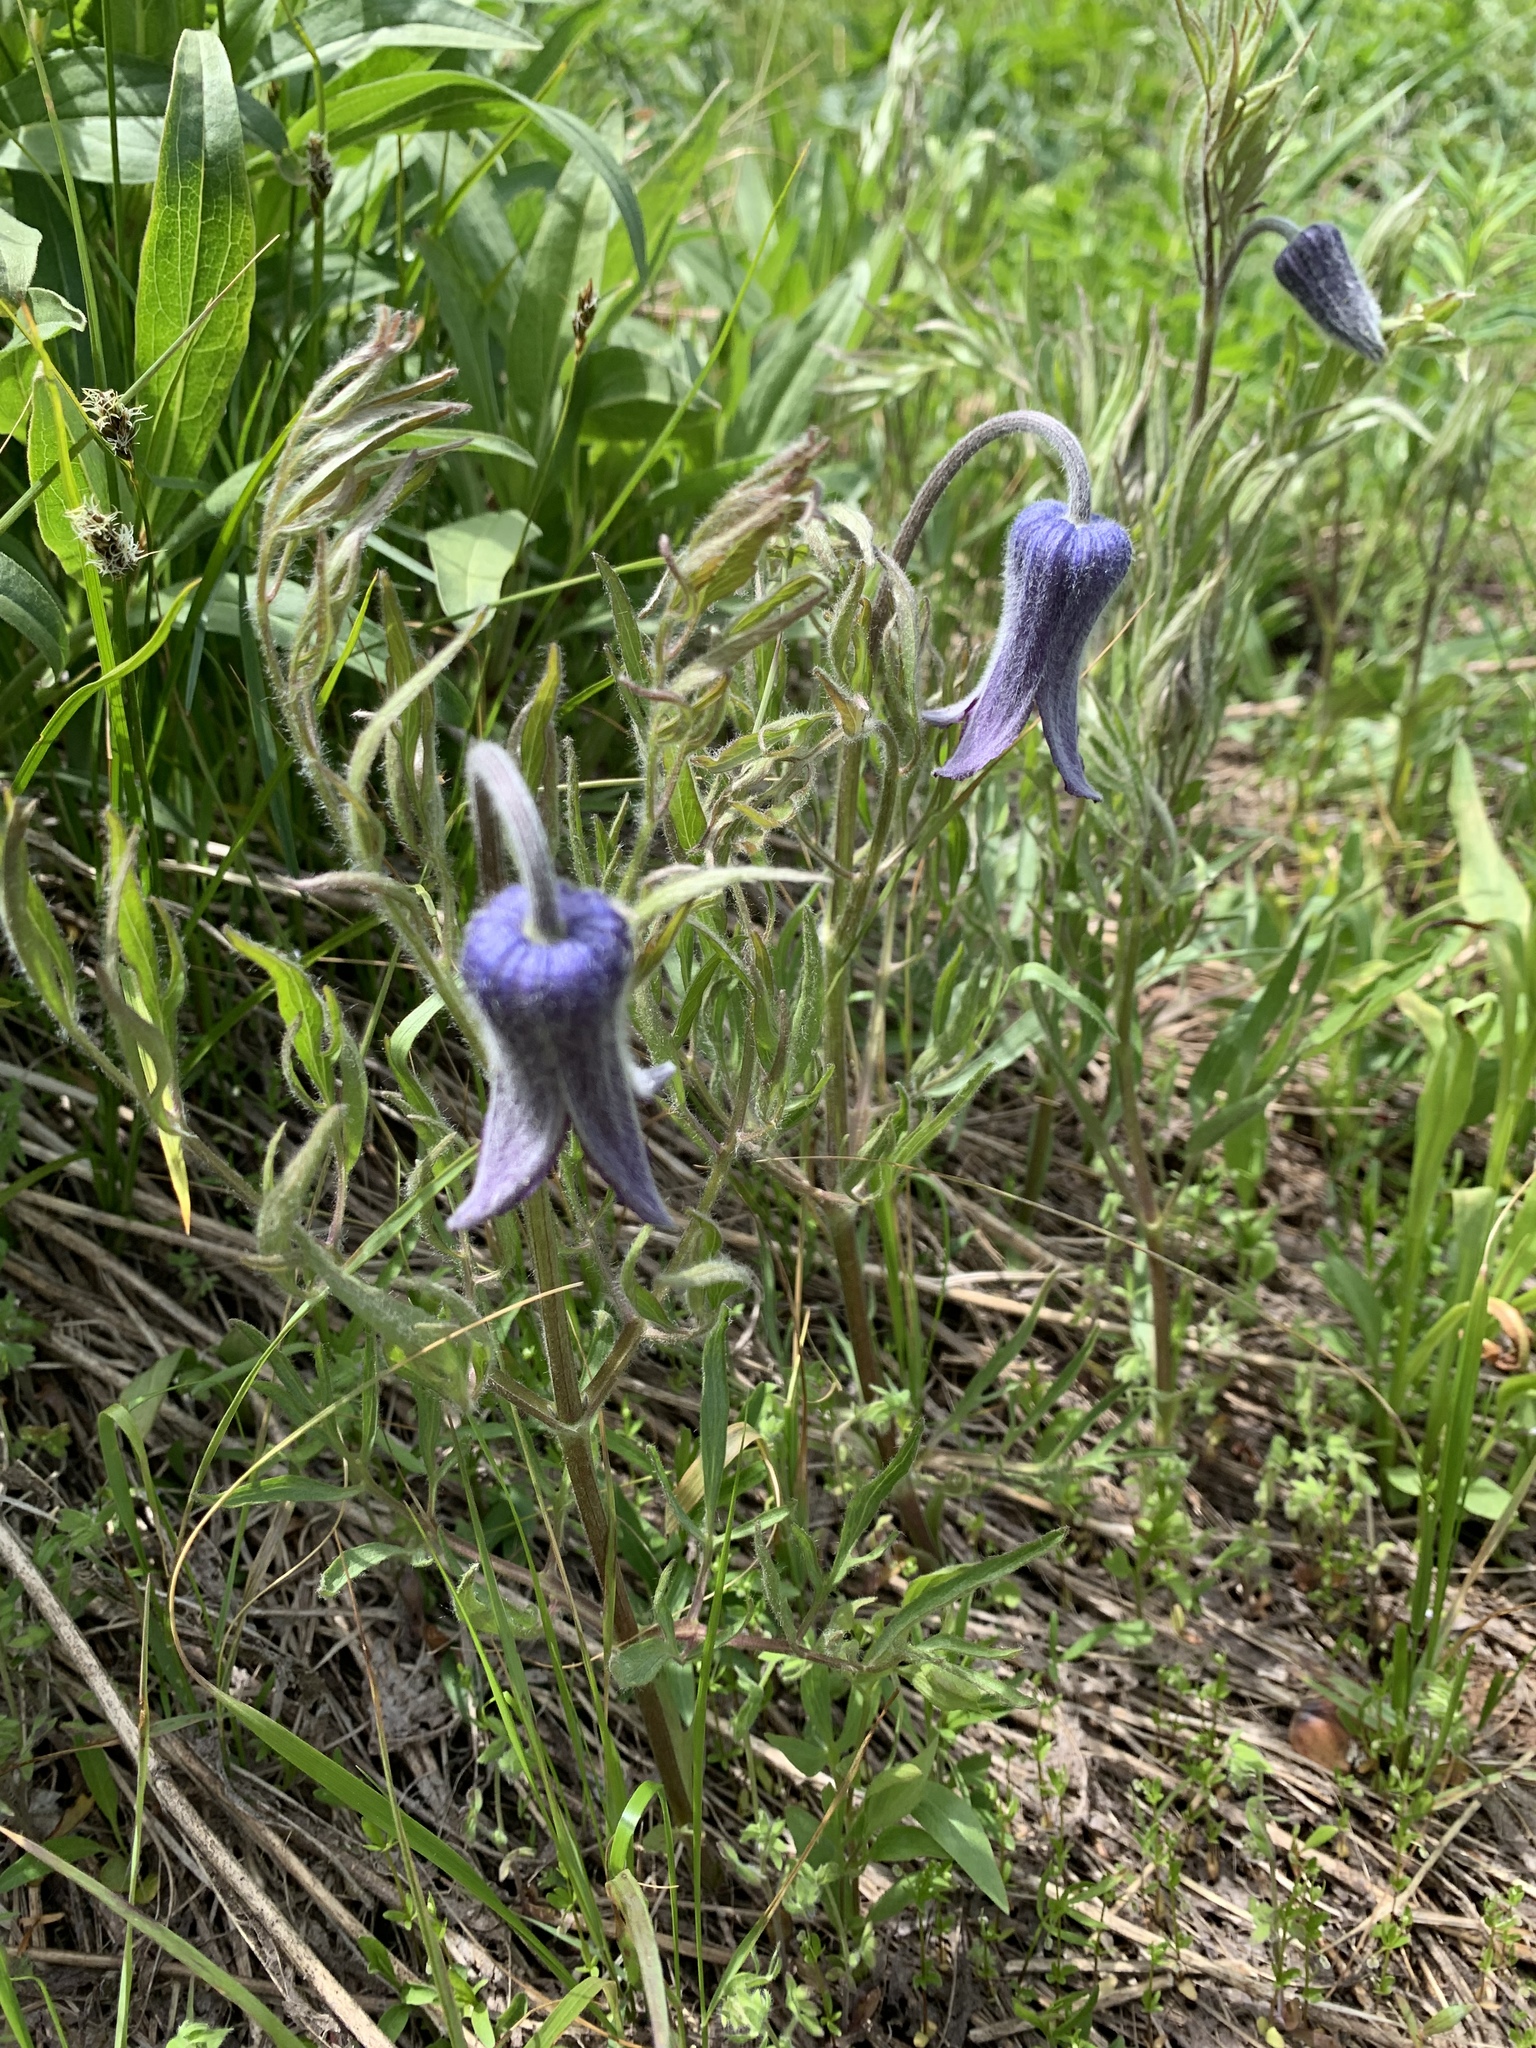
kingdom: Plantae
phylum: Tracheophyta
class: Magnoliopsida
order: Ranunculales
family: Ranunculaceae
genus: Clematis
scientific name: Clematis hirsutissima
